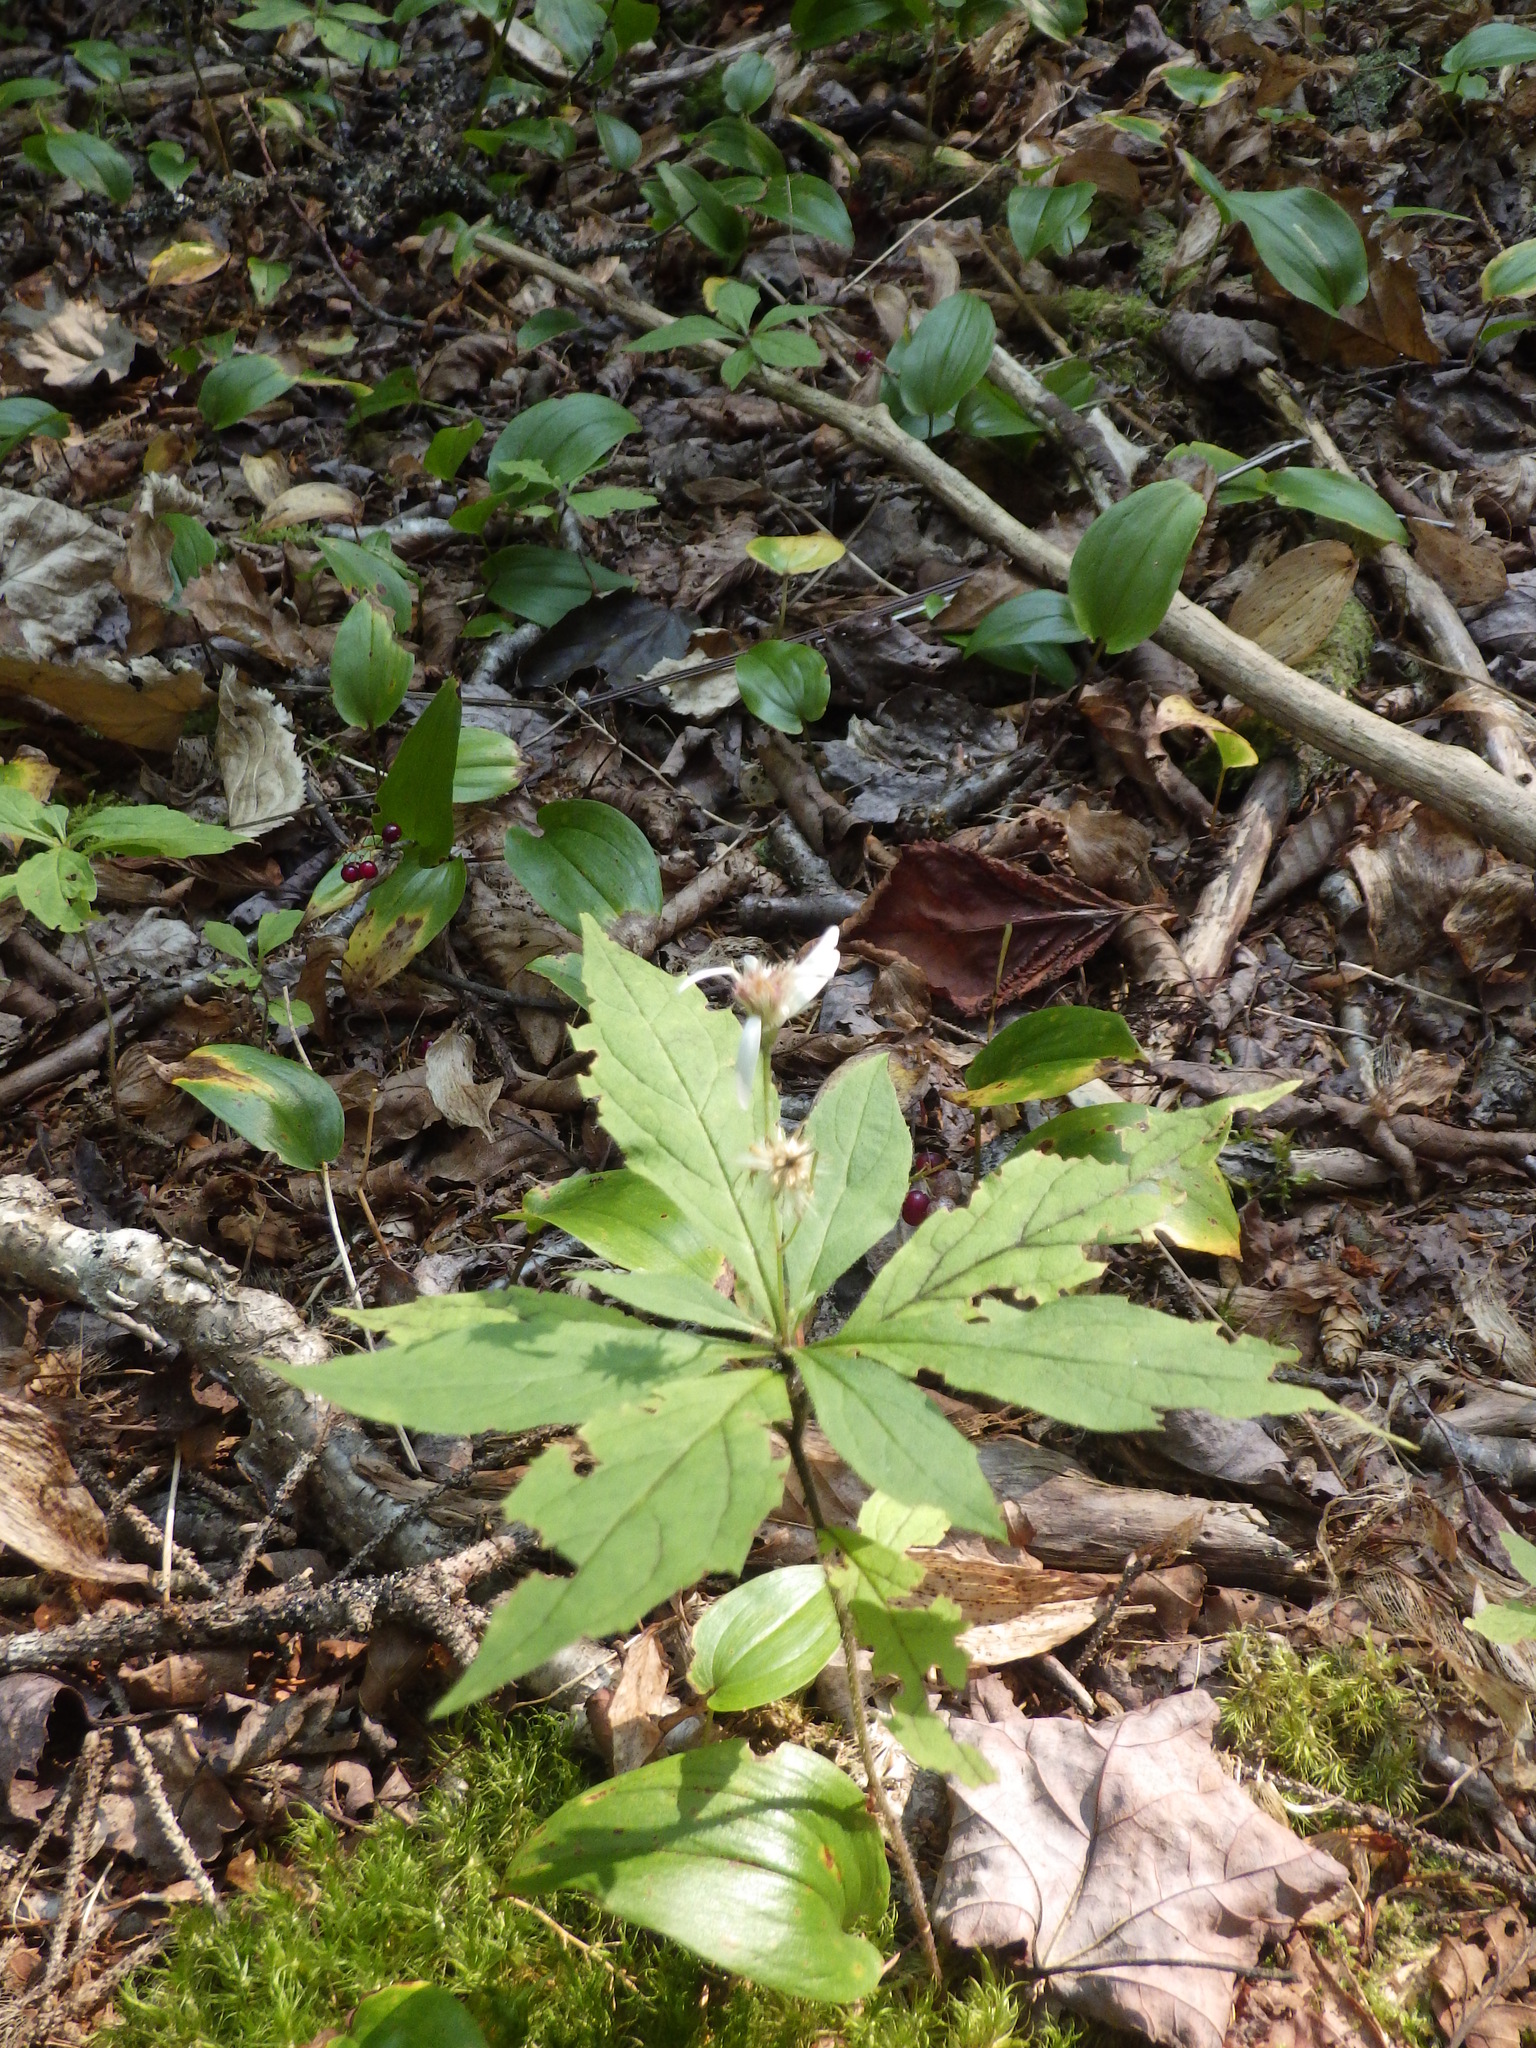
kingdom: Plantae
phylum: Tracheophyta
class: Magnoliopsida
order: Asterales
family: Asteraceae
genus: Oclemena
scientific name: Oclemena acuminata
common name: Mountain aster
